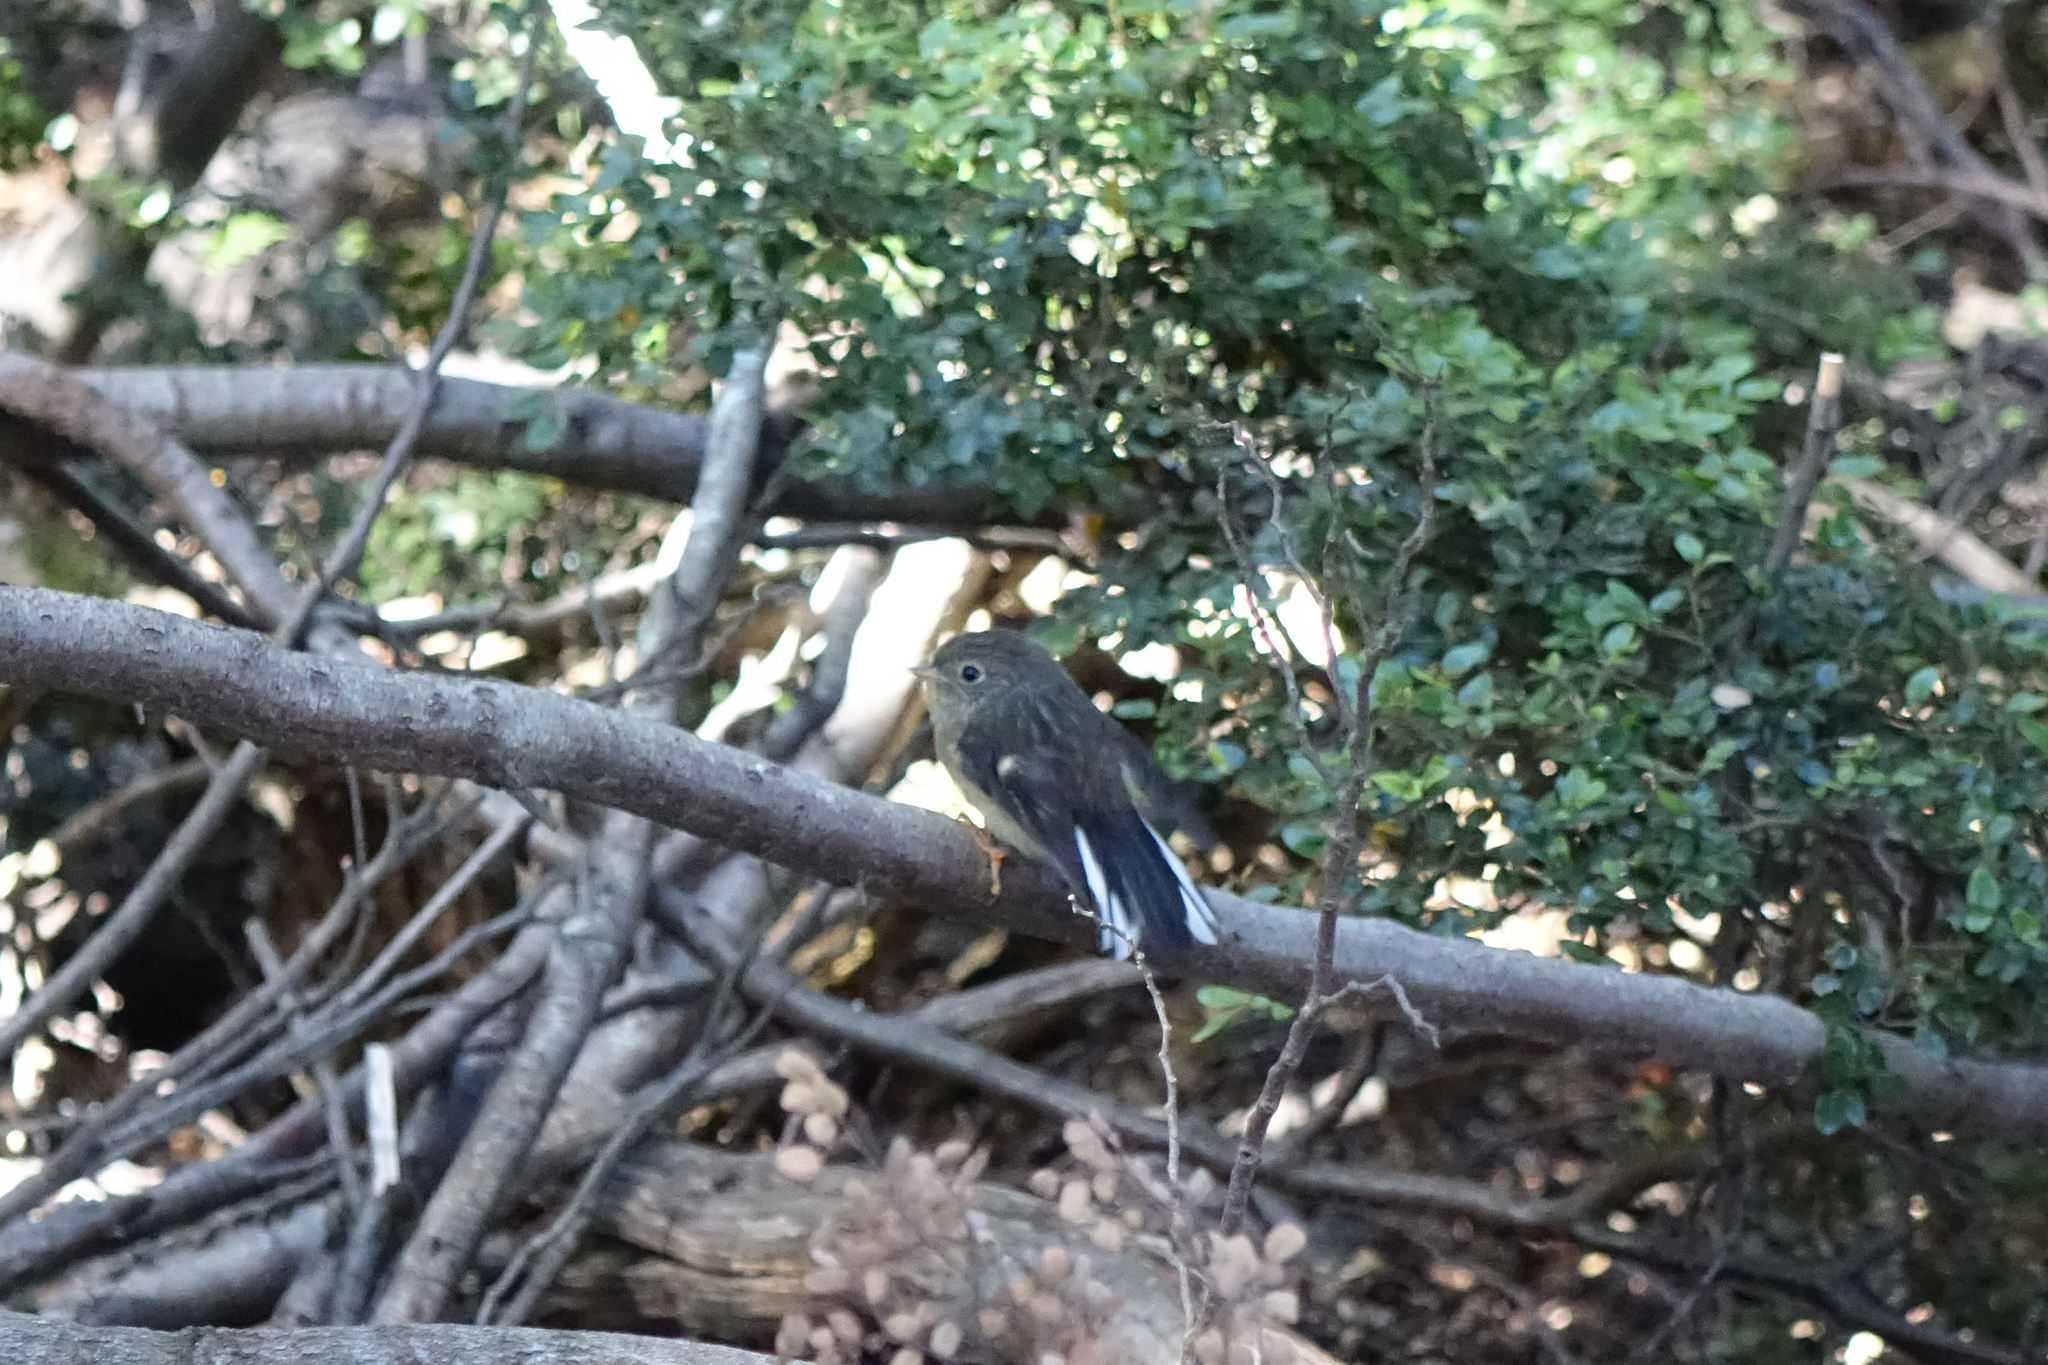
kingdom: Animalia
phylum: Chordata
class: Aves
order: Passeriformes
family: Petroicidae
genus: Petroica
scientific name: Petroica macrocephala
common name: Tomtit
